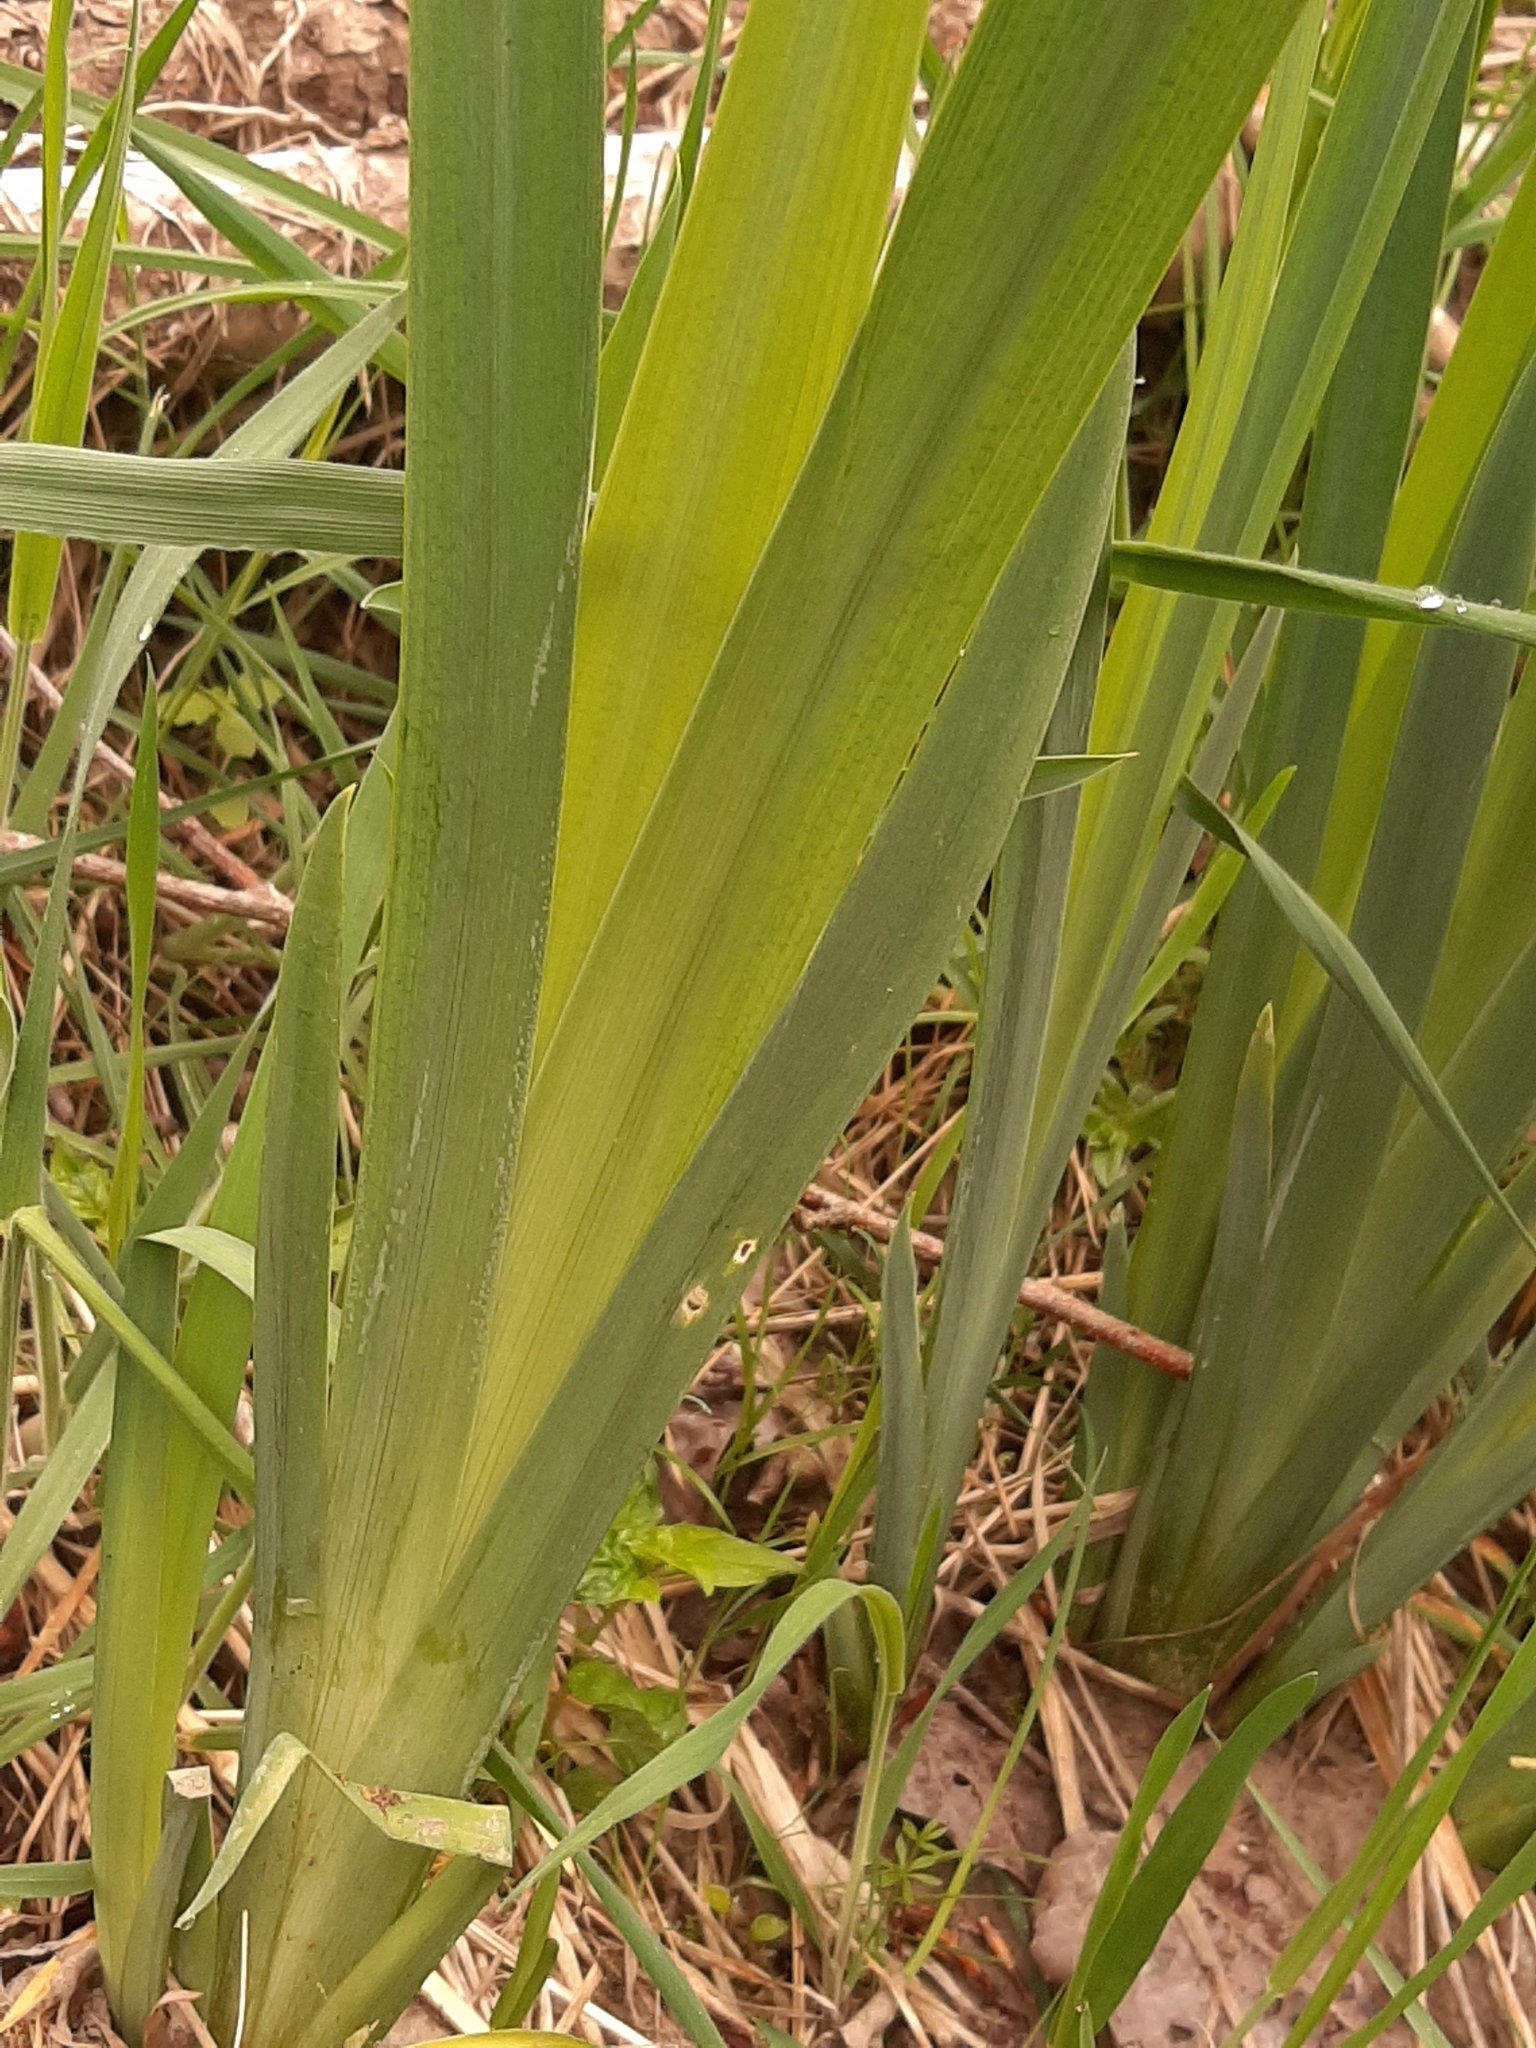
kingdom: Plantae
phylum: Tracheophyta
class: Liliopsida
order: Asparagales
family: Iridaceae
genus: Iris
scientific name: Iris pseudacorus
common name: Yellow flag
